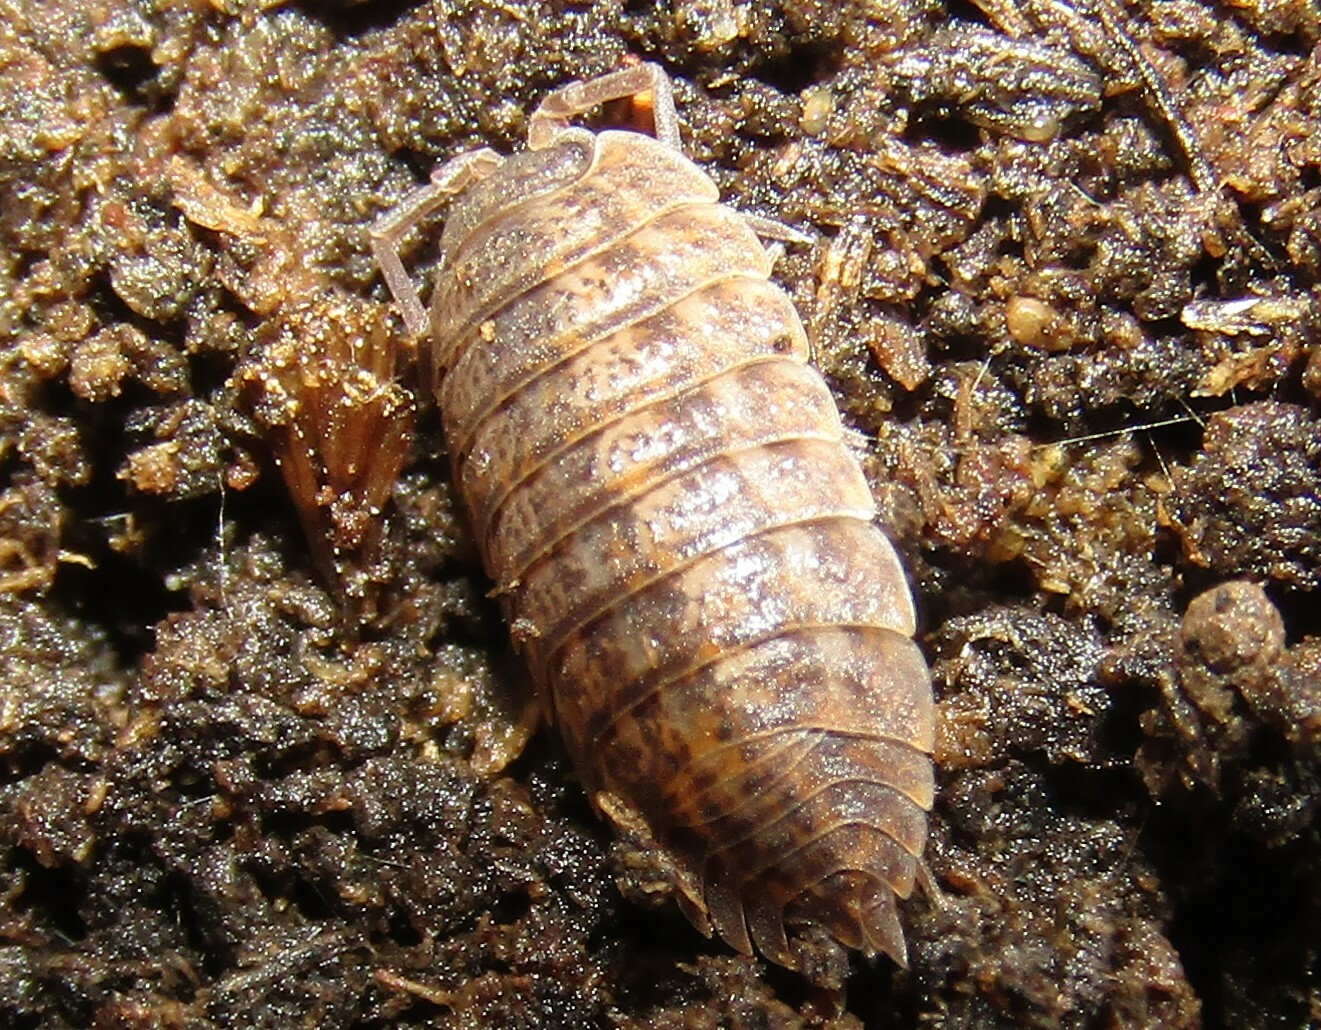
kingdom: Animalia
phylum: Arthropoda
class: Malacostraca
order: Isopoda
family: Trachelipodidae
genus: Trachelipus
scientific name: Trachelipus rathkii
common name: Isopod
